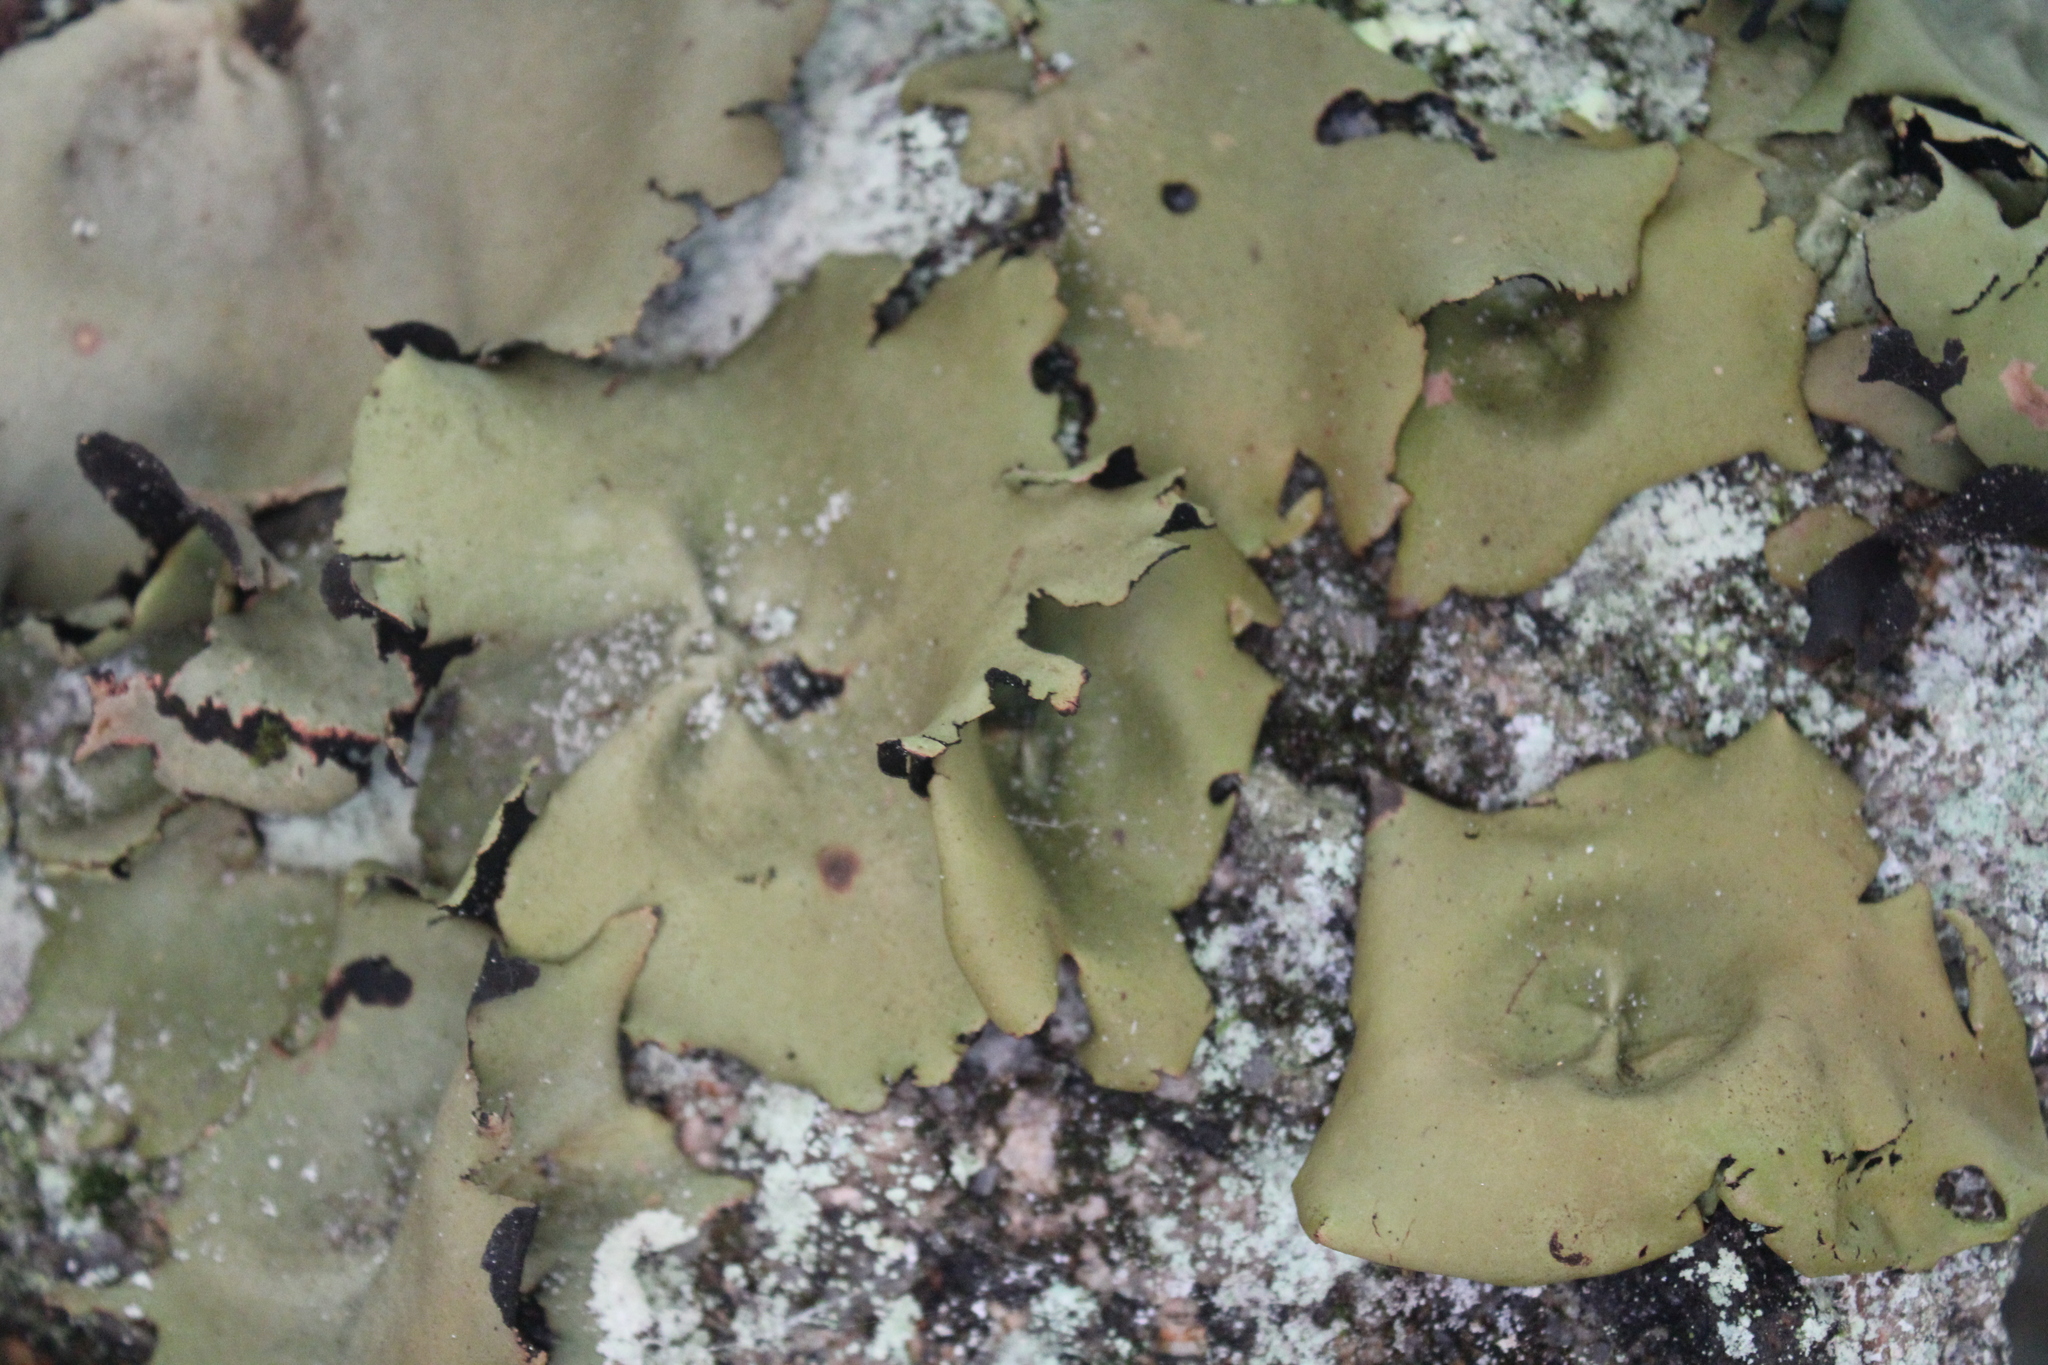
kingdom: Fungi
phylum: Ascomycota
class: Lecanoromycetes
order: Umbilicariales
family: Umbilicariaceae
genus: Umbilicaria
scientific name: Umbilicaria mammulata
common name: Smooth rock tripe
